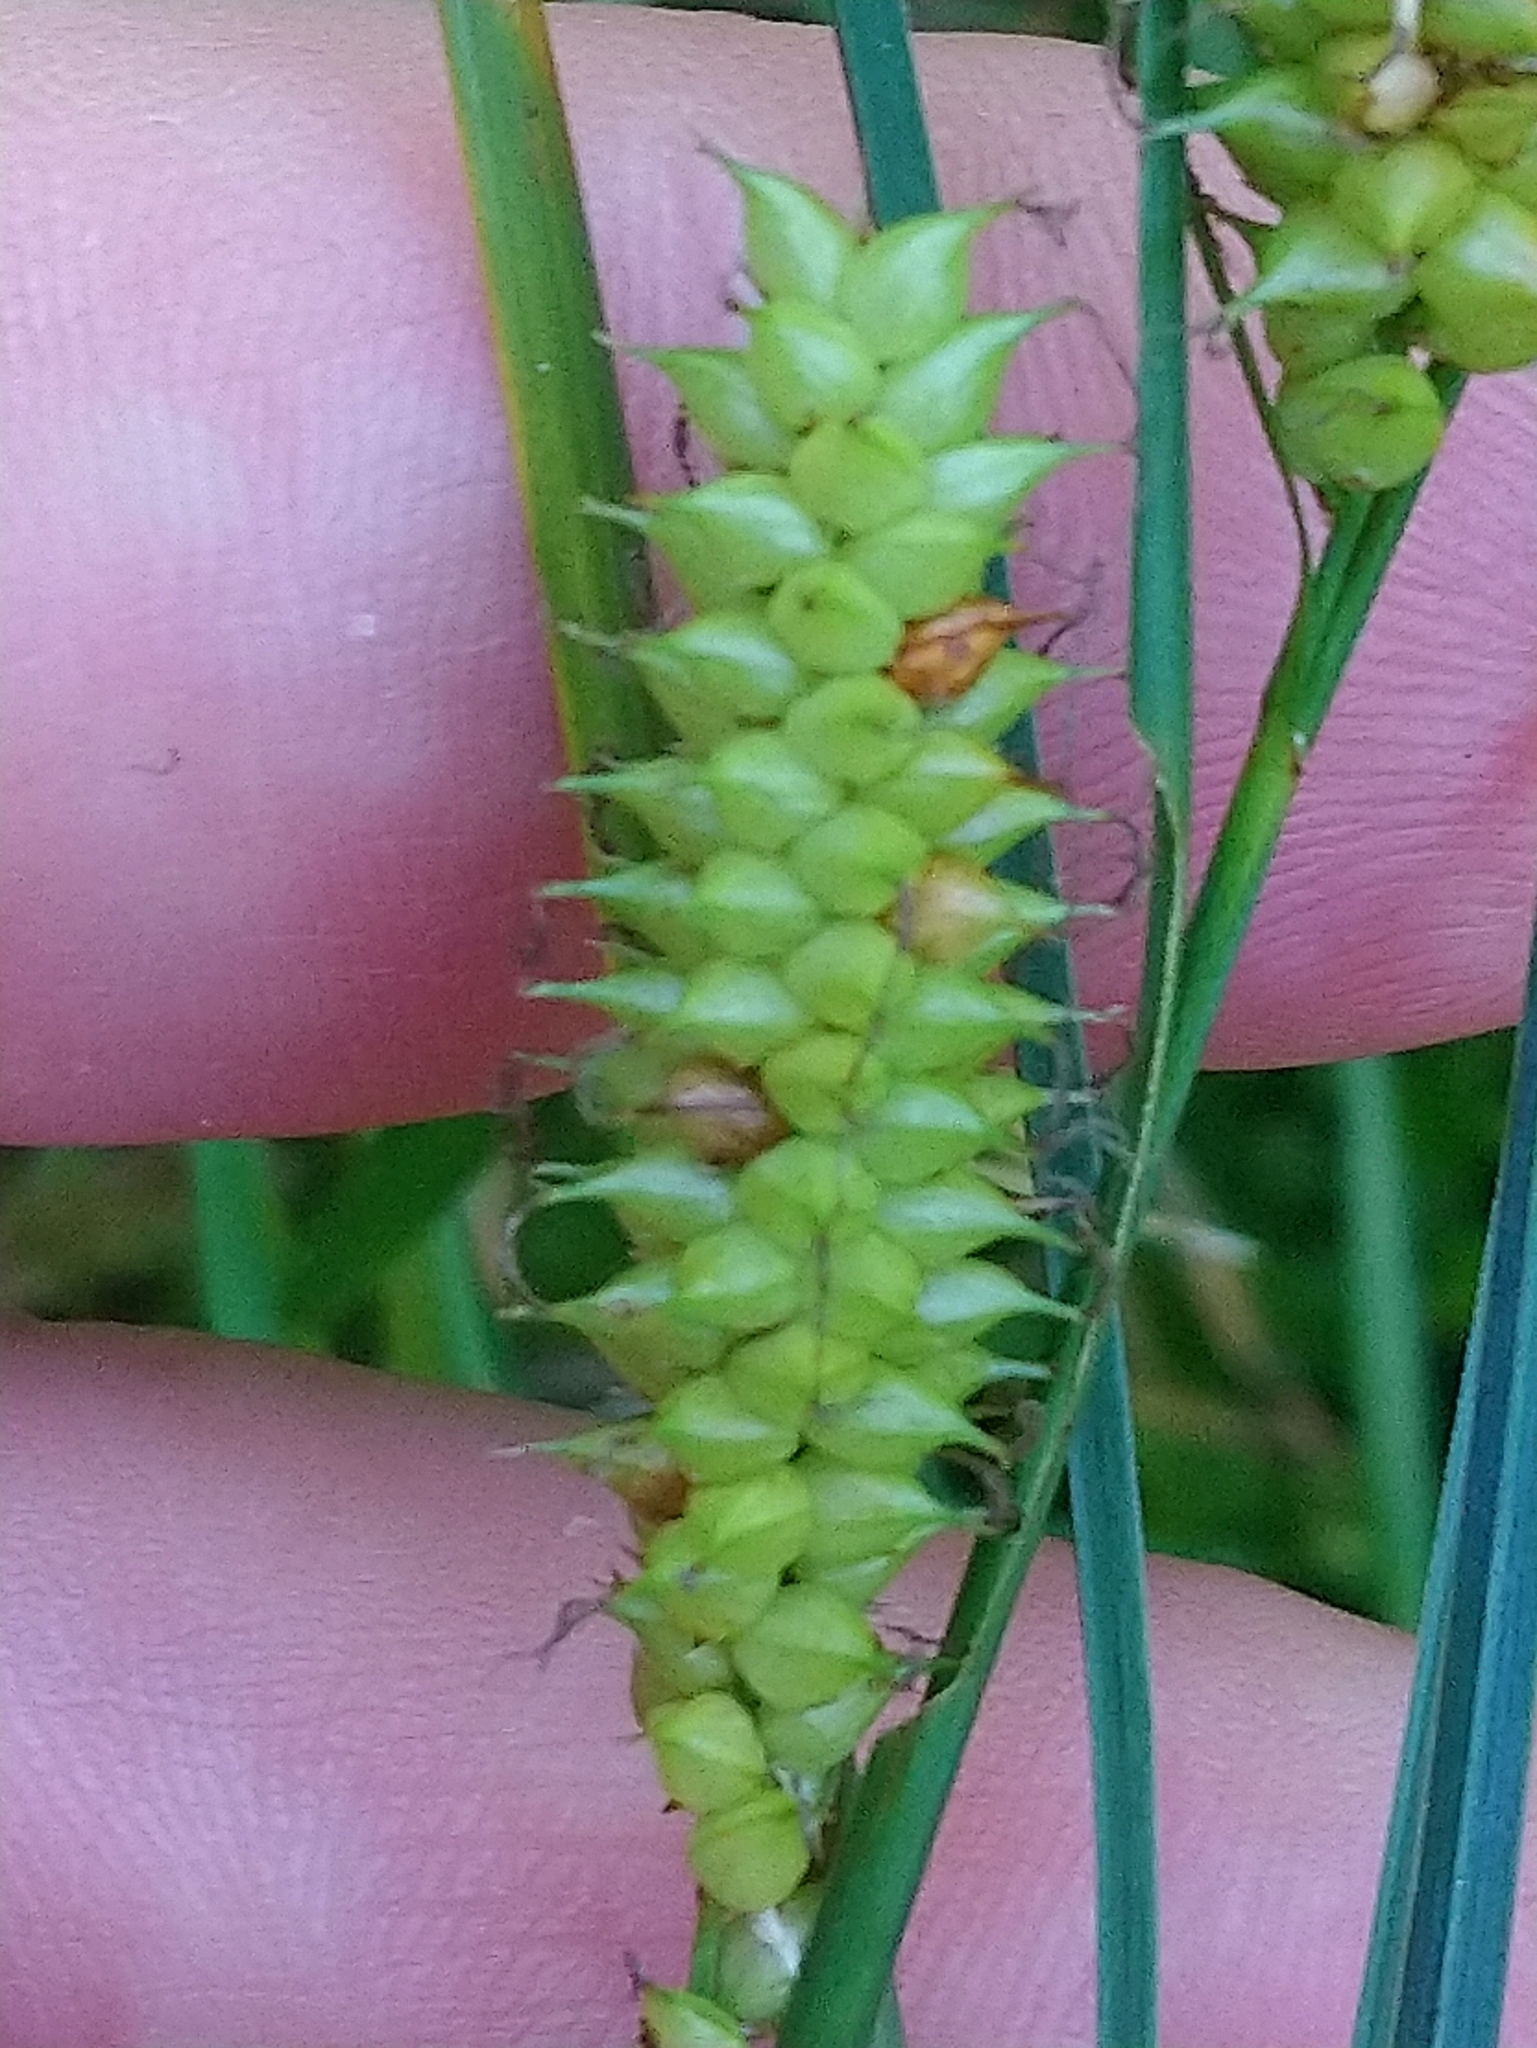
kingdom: Plantae
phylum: Tracheophyta
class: Liliopsida
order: Poales
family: Cyperaceae
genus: Carex
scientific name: Carex rostrata
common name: Bottle sedge
